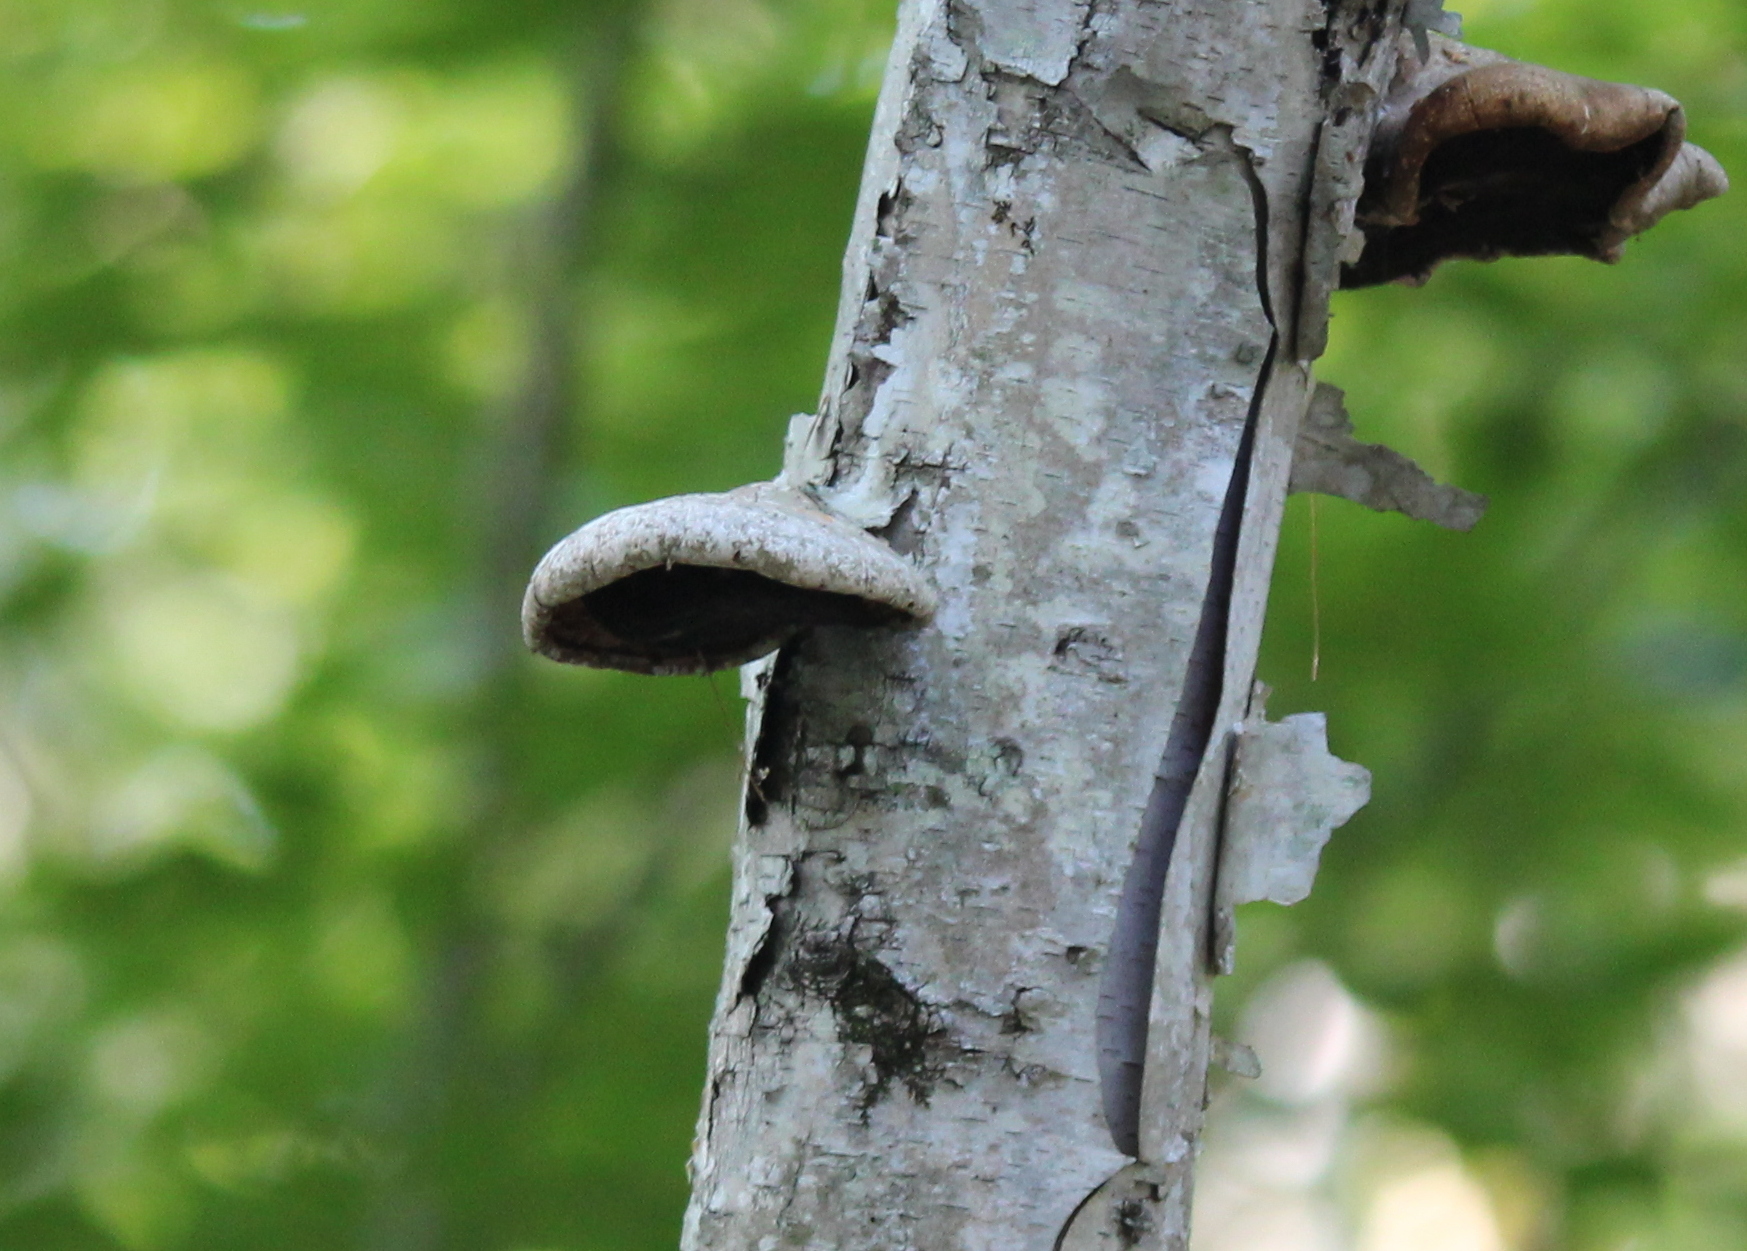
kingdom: Fungi
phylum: Basidiomycota
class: Agaricomycetes
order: Polyporales
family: Fomitopsidaceae
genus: Fomitopsis
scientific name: Fomitopsis betulina
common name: Birch polypore
